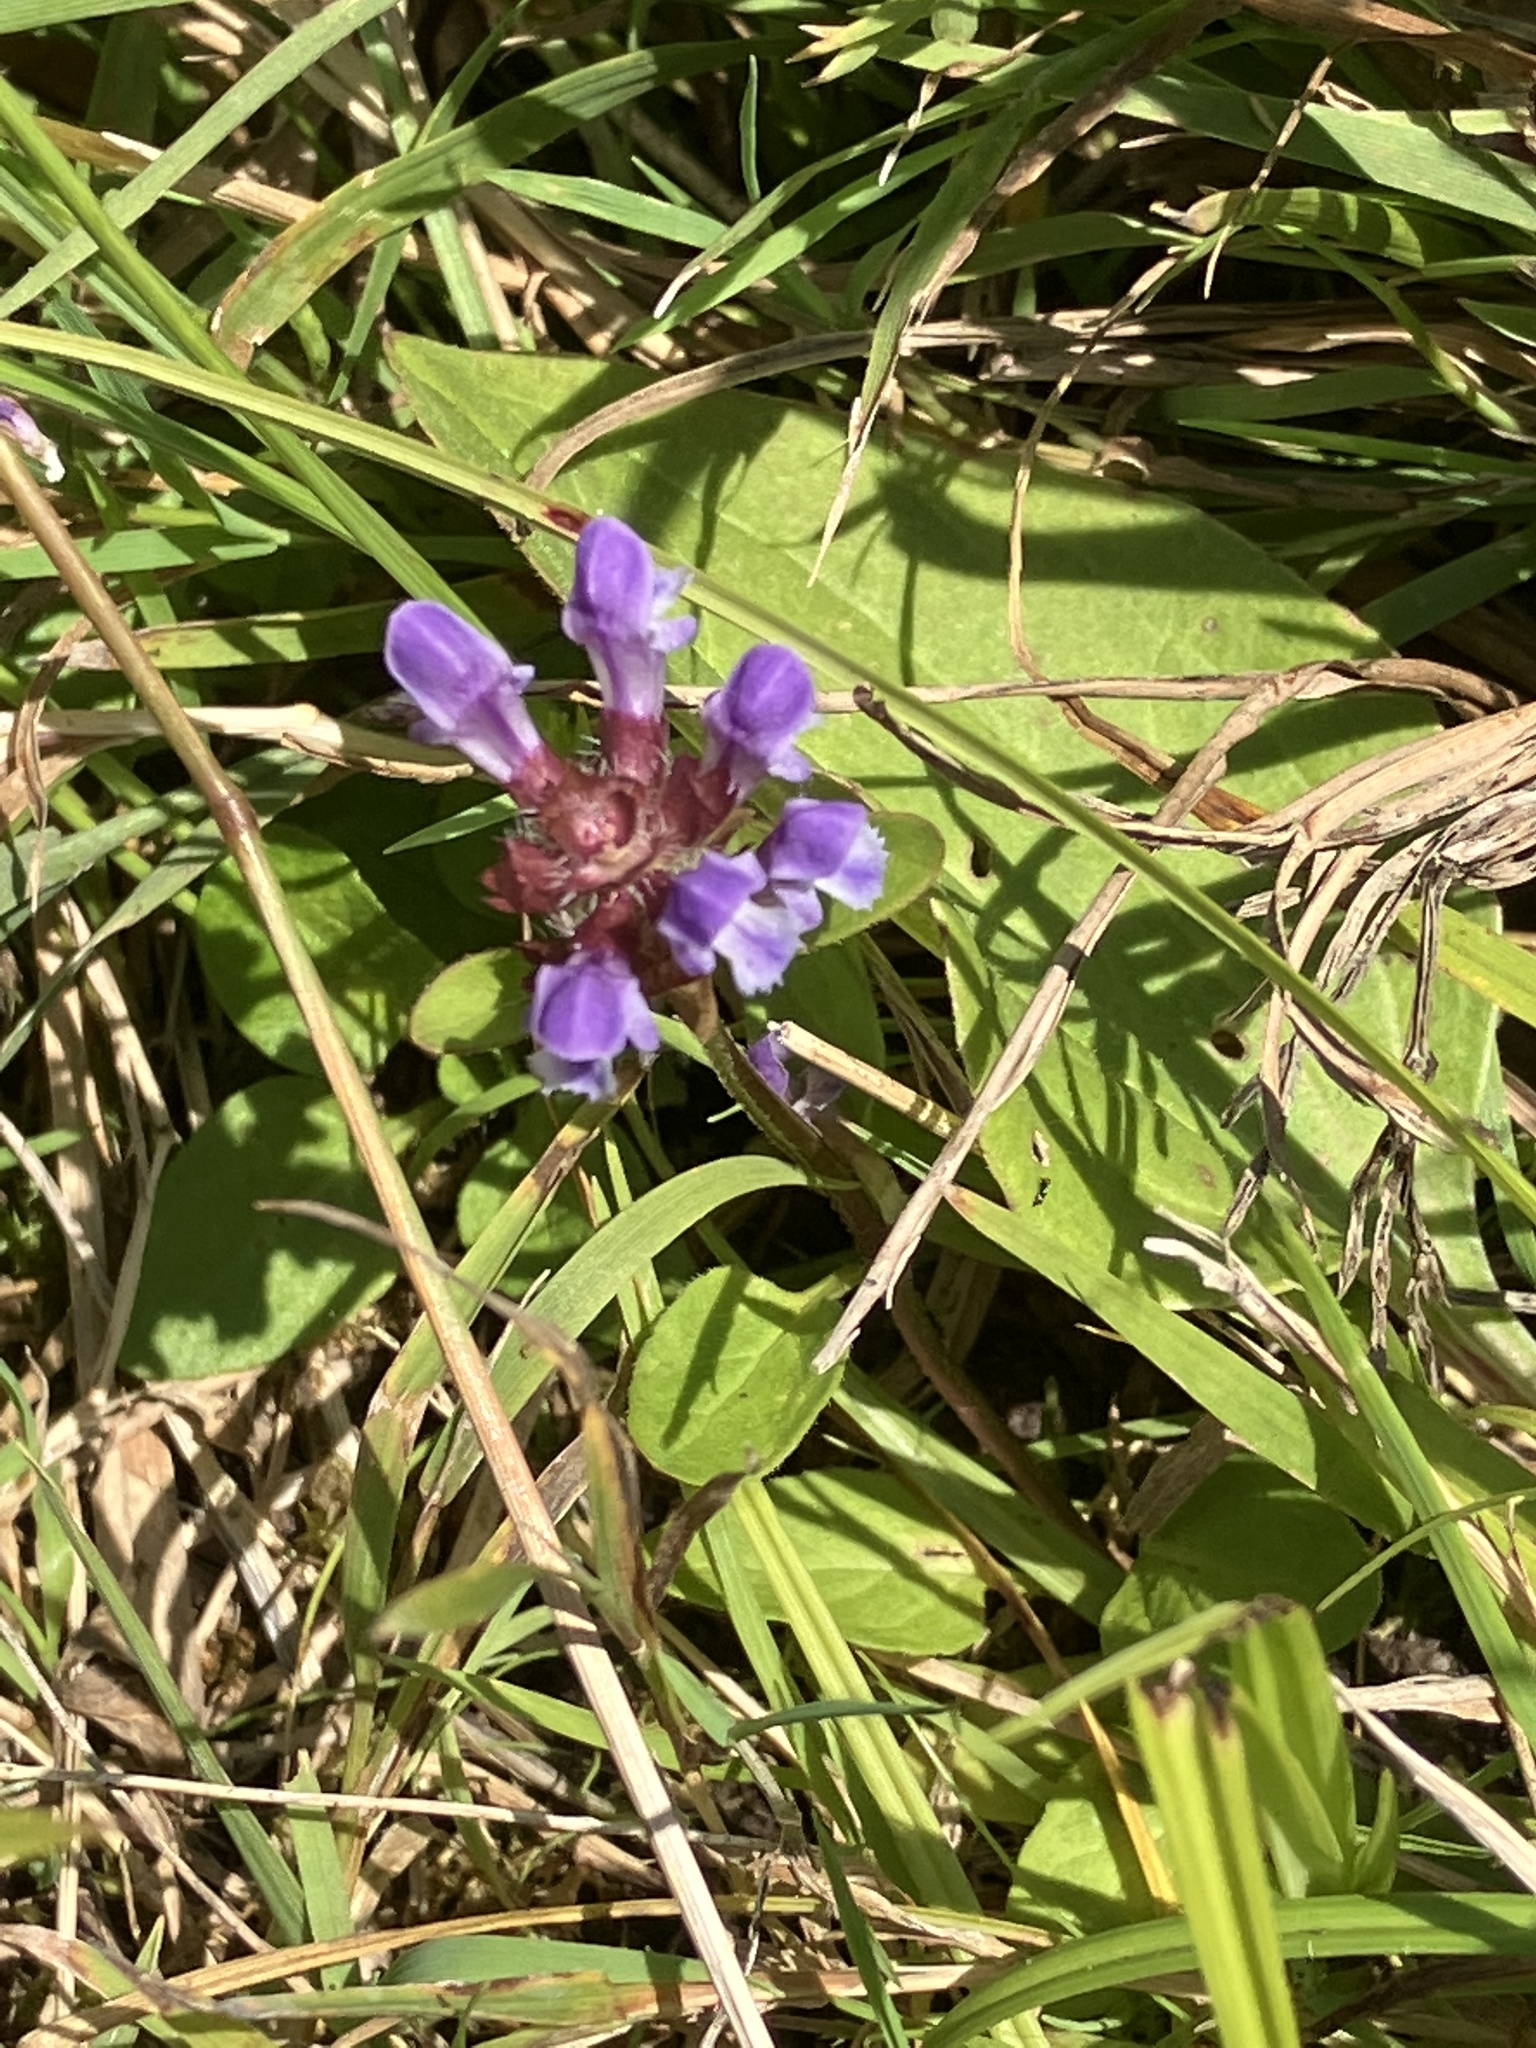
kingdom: Plantae
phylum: Tracheophyta
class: Magnoliopsida
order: Lamiales
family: Lamiaceae
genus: Prunella
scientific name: Prunella vulgaris
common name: Heal-all
